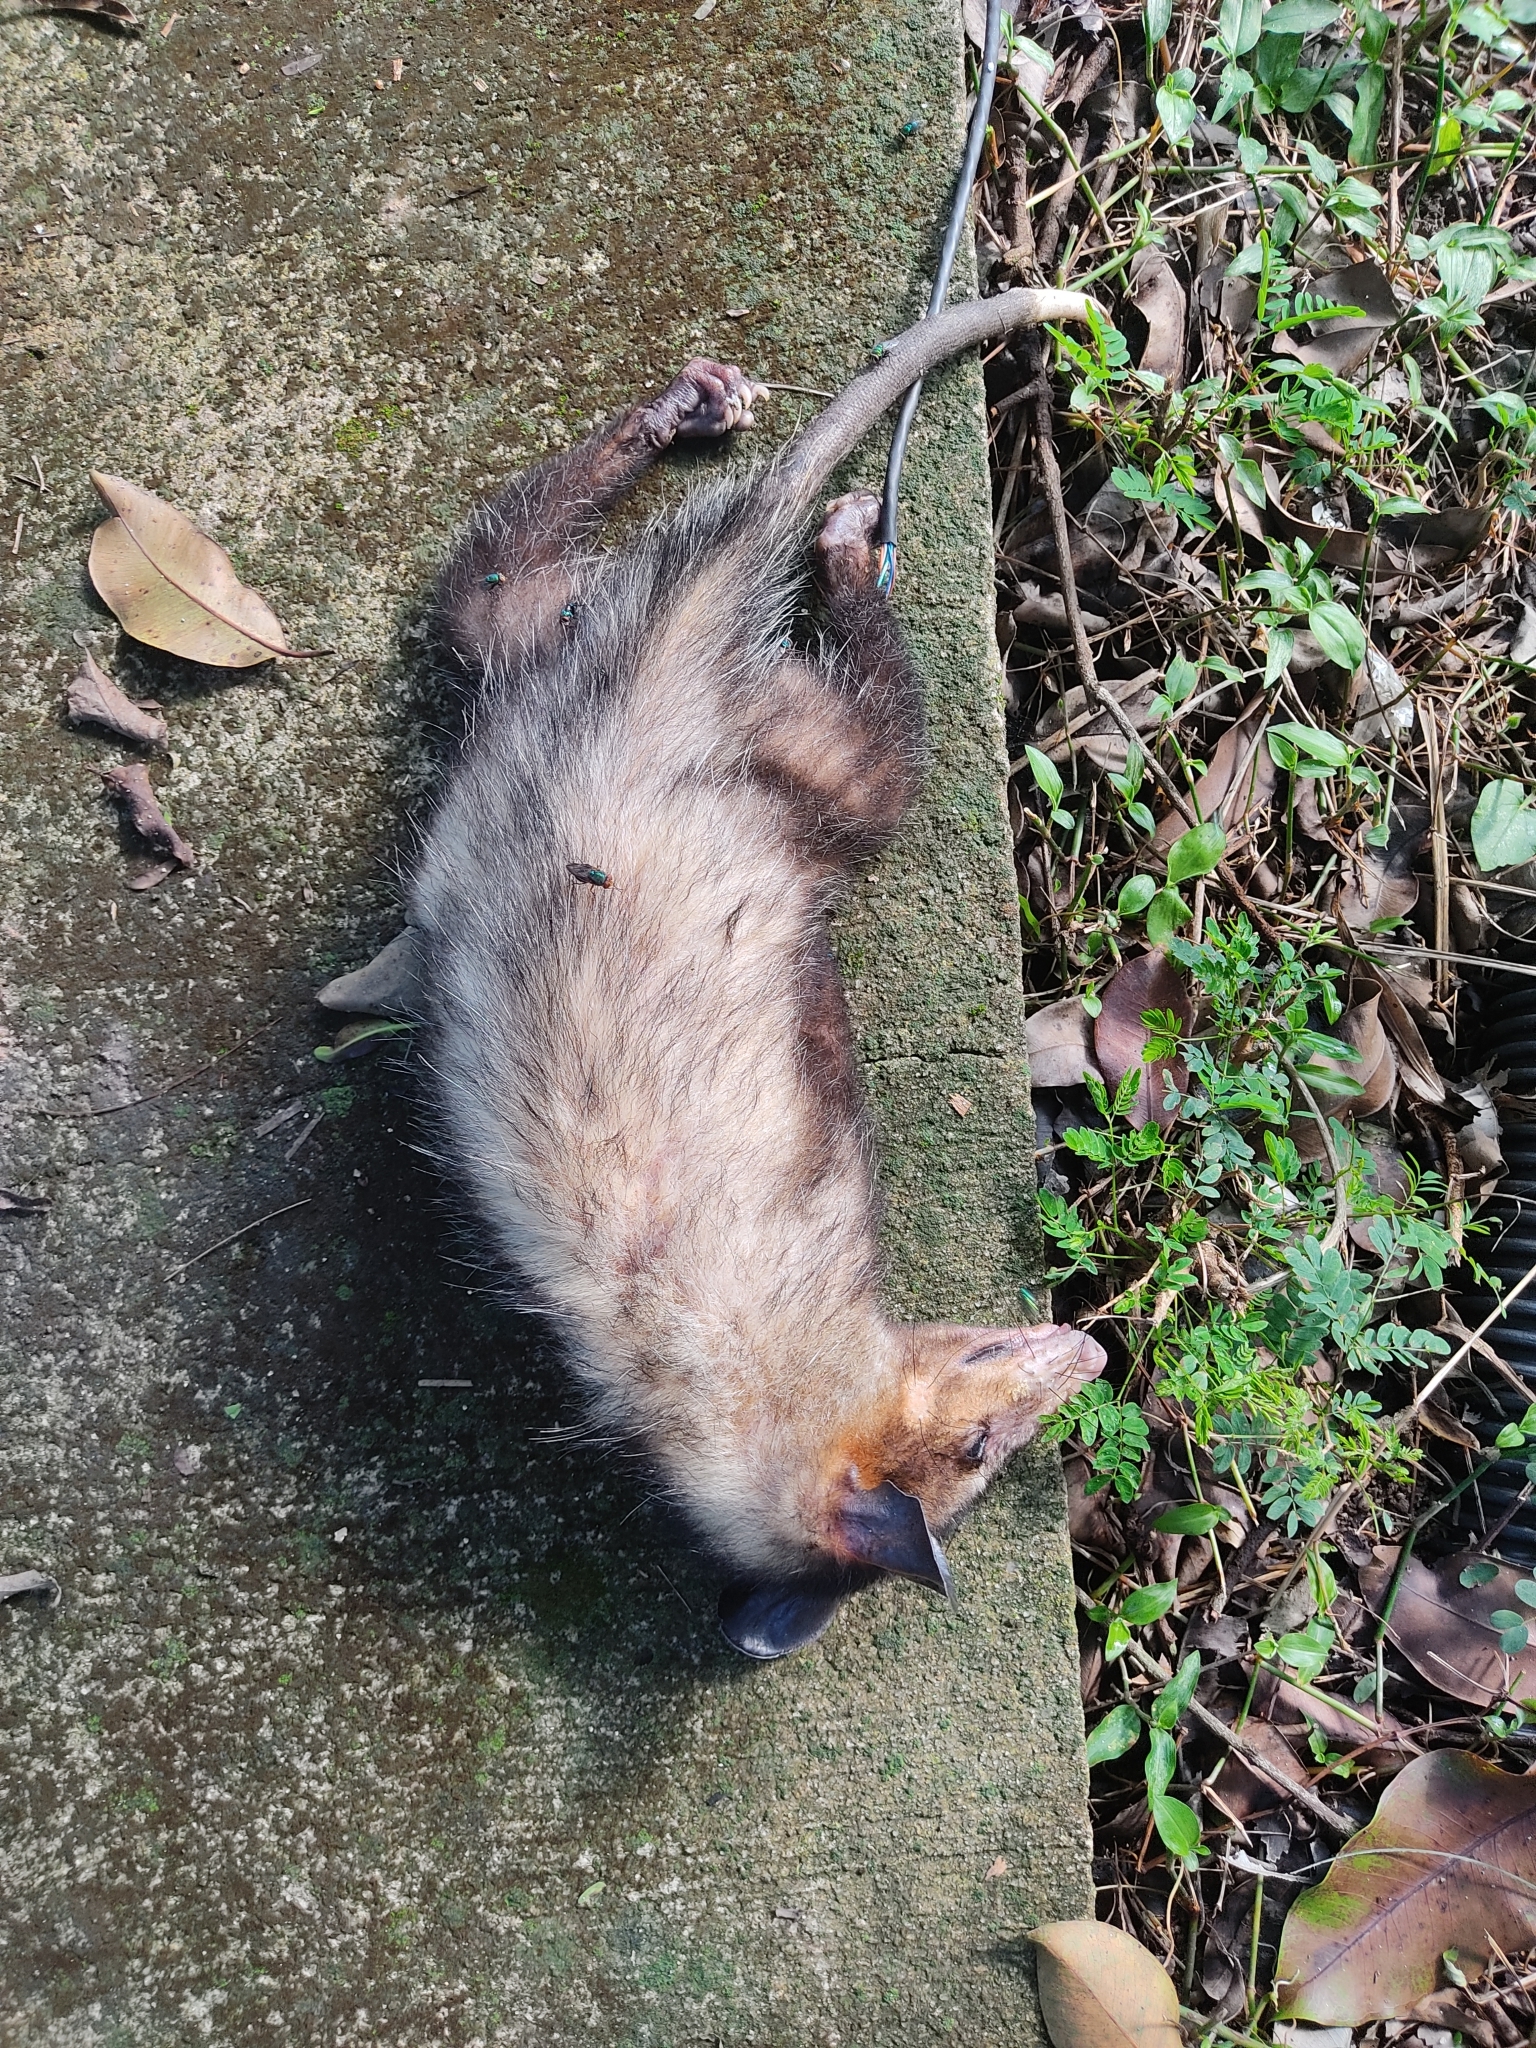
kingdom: Animalia
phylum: Chordata
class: Mammalia
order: Didelphimorphia
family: Didelphidae
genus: Didelphis
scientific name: Didelphis aurita
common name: Big-eared opossum
